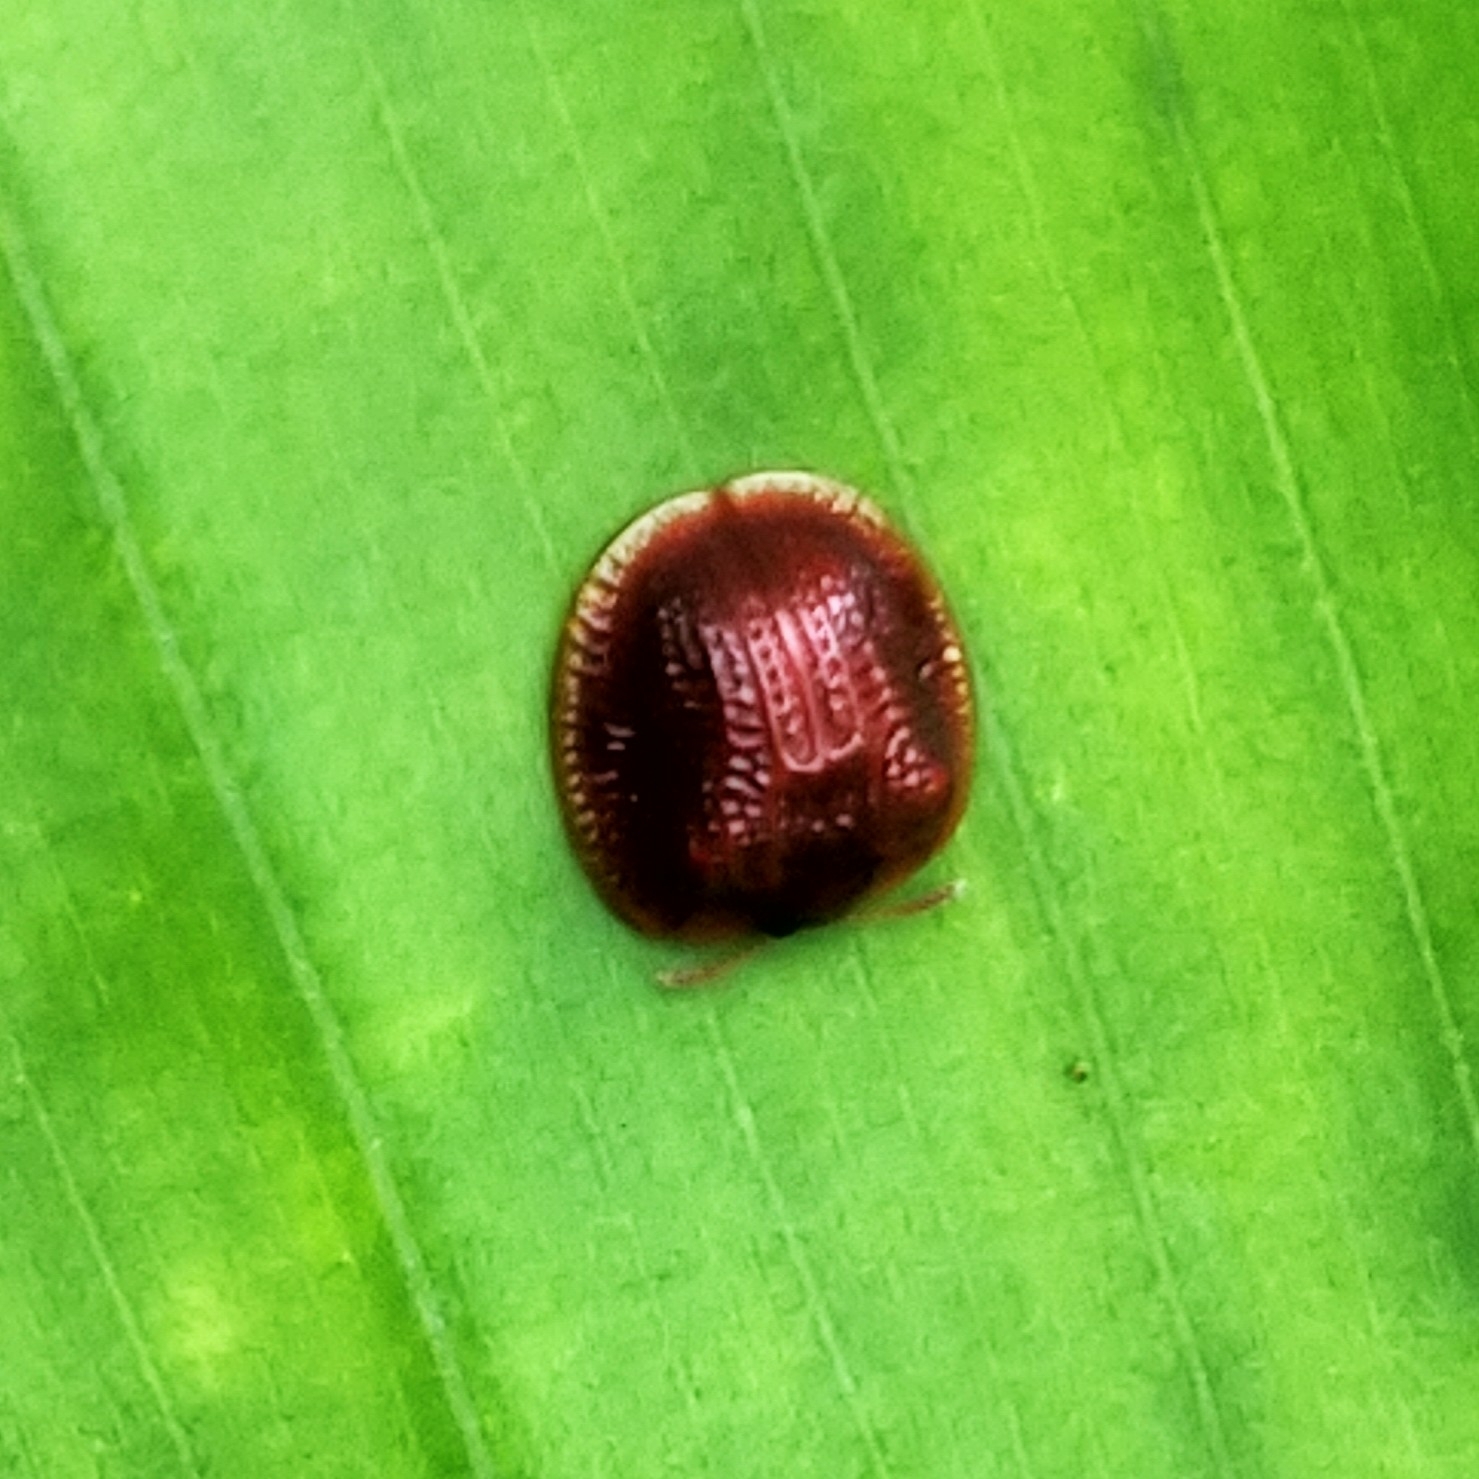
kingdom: Animalia
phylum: Arthropoda
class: Insecta
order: Coleoptera
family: Chrysomelidae
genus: Spaethiella
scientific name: Spaethiella
